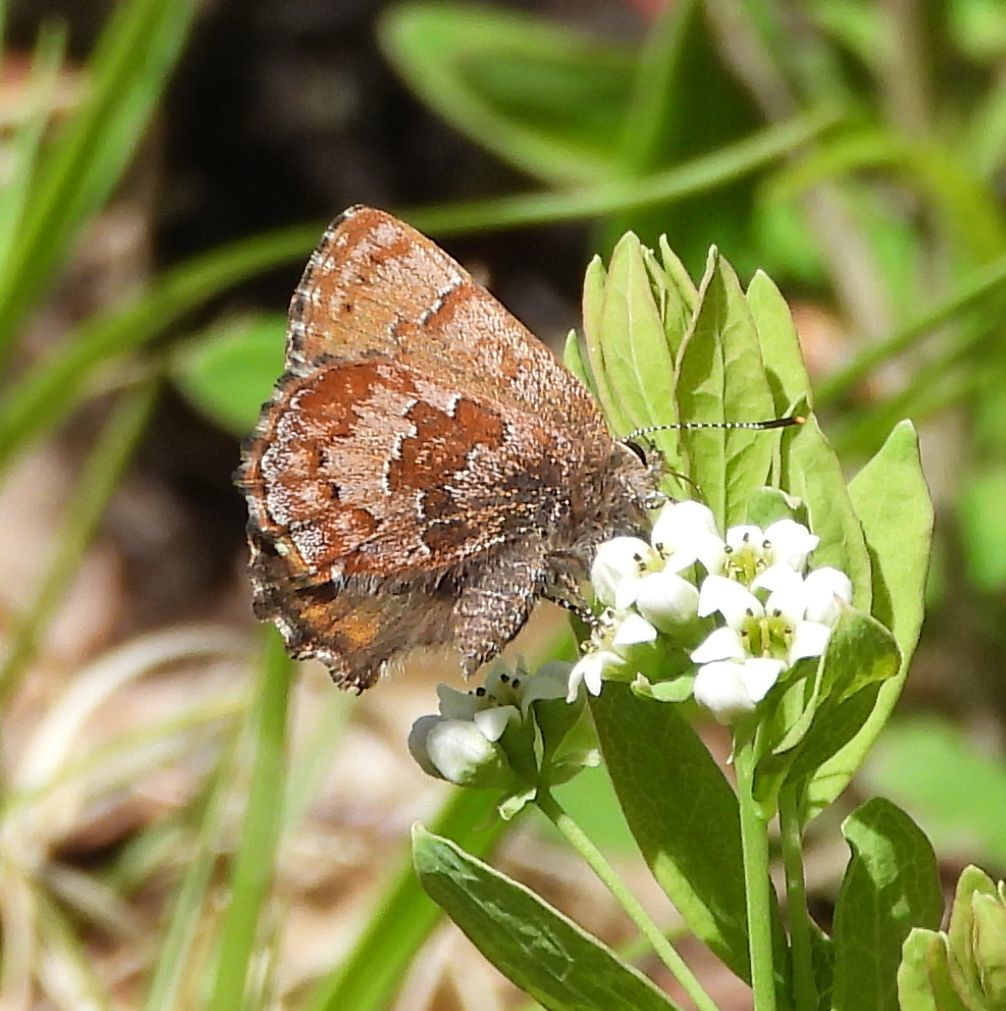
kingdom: Animalia
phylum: Arthropoda
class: Insecta
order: Lepidoptera
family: Lycaenidae
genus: Incisalia
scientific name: Incisalia niphon
